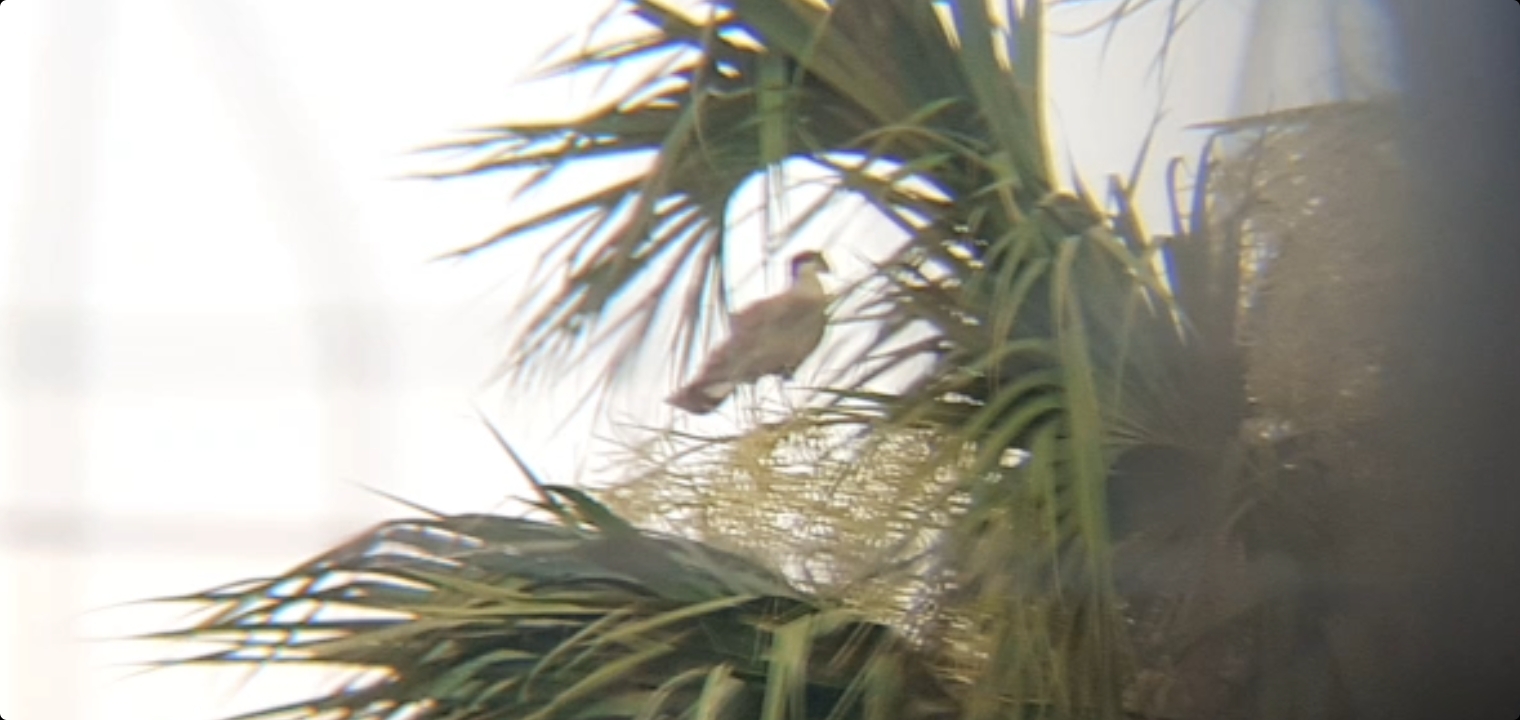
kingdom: Animalia
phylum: Chordata
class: Aves
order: Falconiformes
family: Falconidae
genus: Caracara
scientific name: Caracara plancus
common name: Southern caracara
